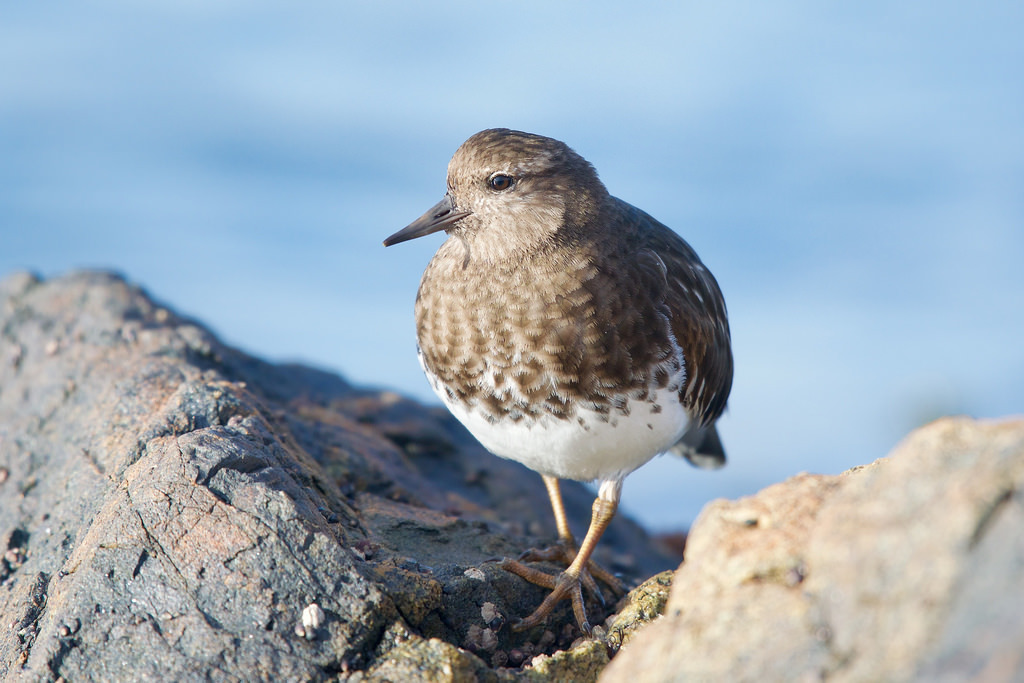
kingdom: Animalia
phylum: Chordata
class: Aves
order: Charadriiformes
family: Scolopacidae
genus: Arenaria
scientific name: Arenaria melanocephala
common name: Black turnstone
